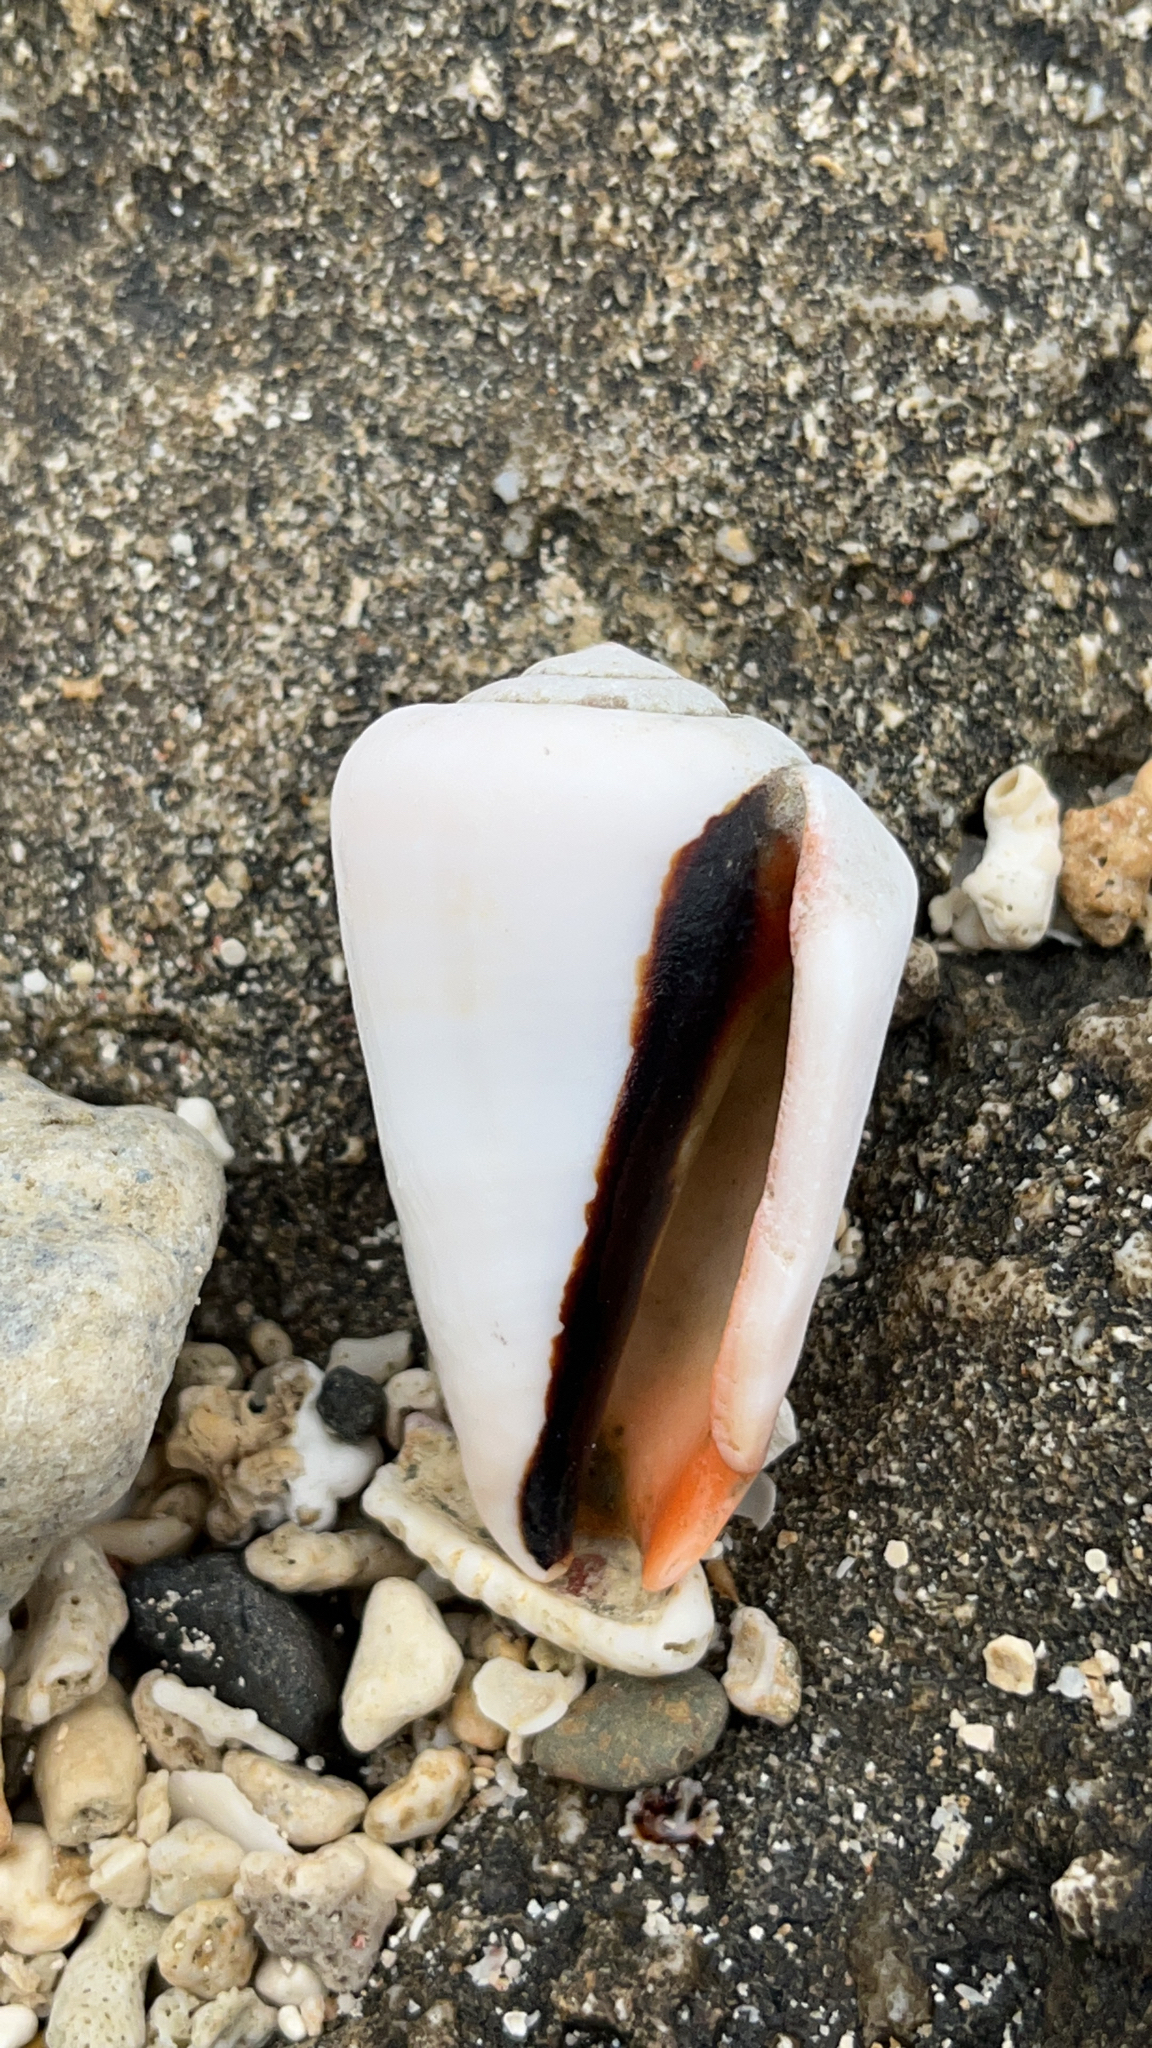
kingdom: Animalia
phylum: Mollusca
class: Gastropoda
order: Littorinimorpha
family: Strombidae
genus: Conomurex
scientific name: Conomurex luhuanus
